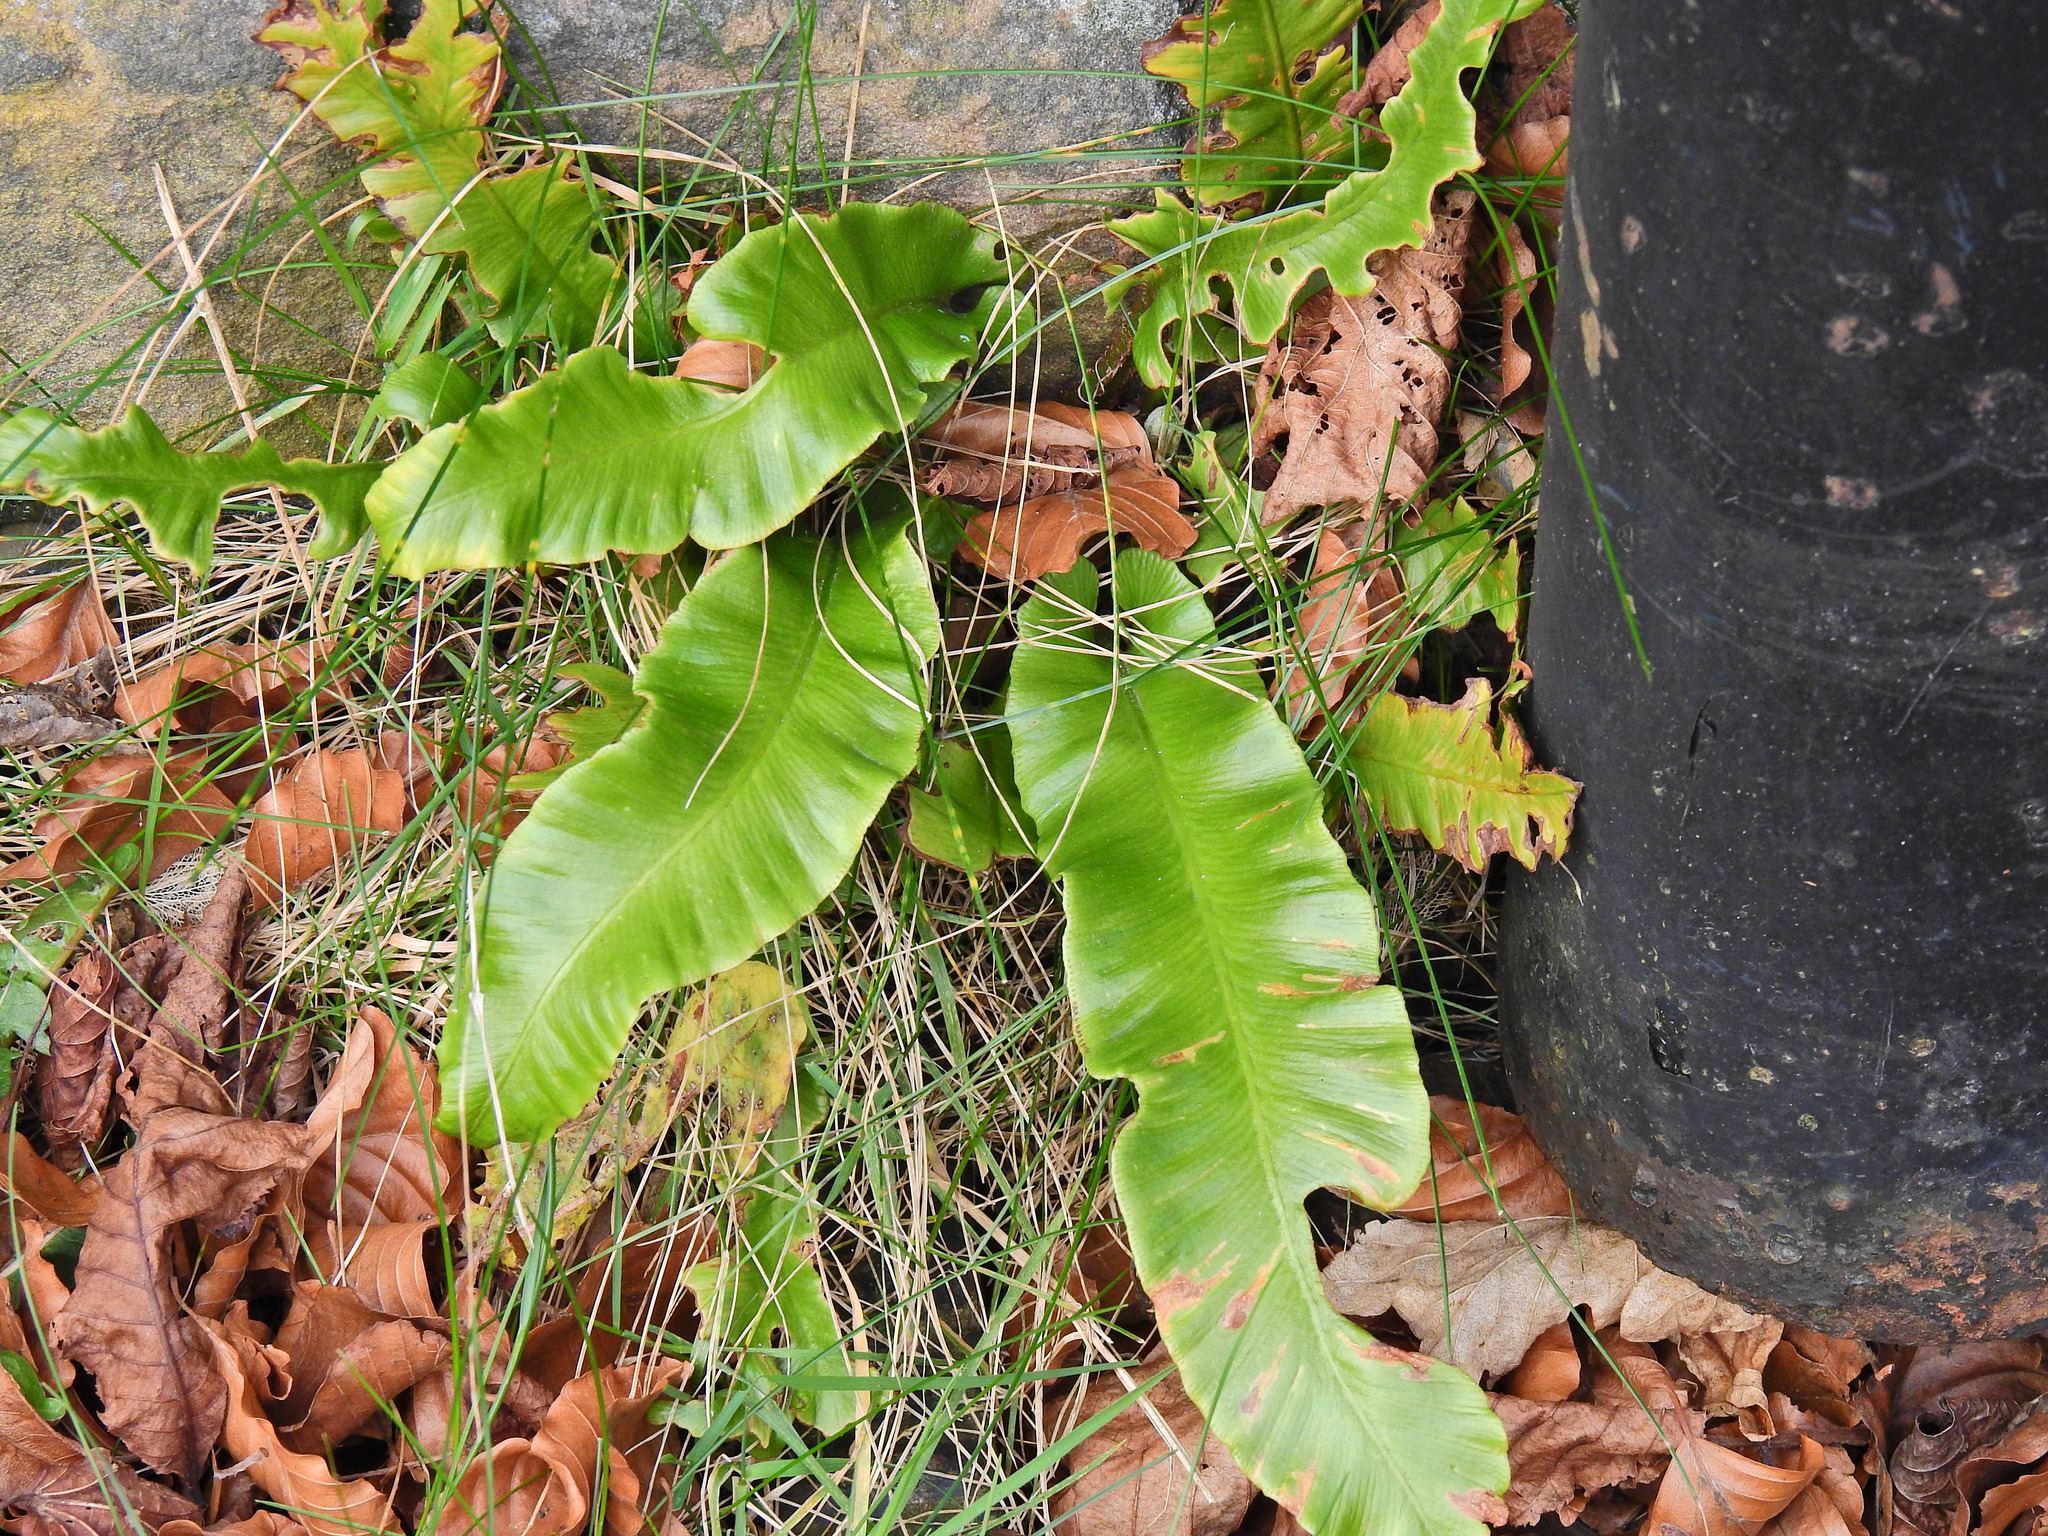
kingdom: Plantae
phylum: Tracheophyta
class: Polypodiopsida
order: Polypodiales
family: Aspleniaceae
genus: Asplenium
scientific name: Asplenium scolopendrium
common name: Hart's-tongue fern
